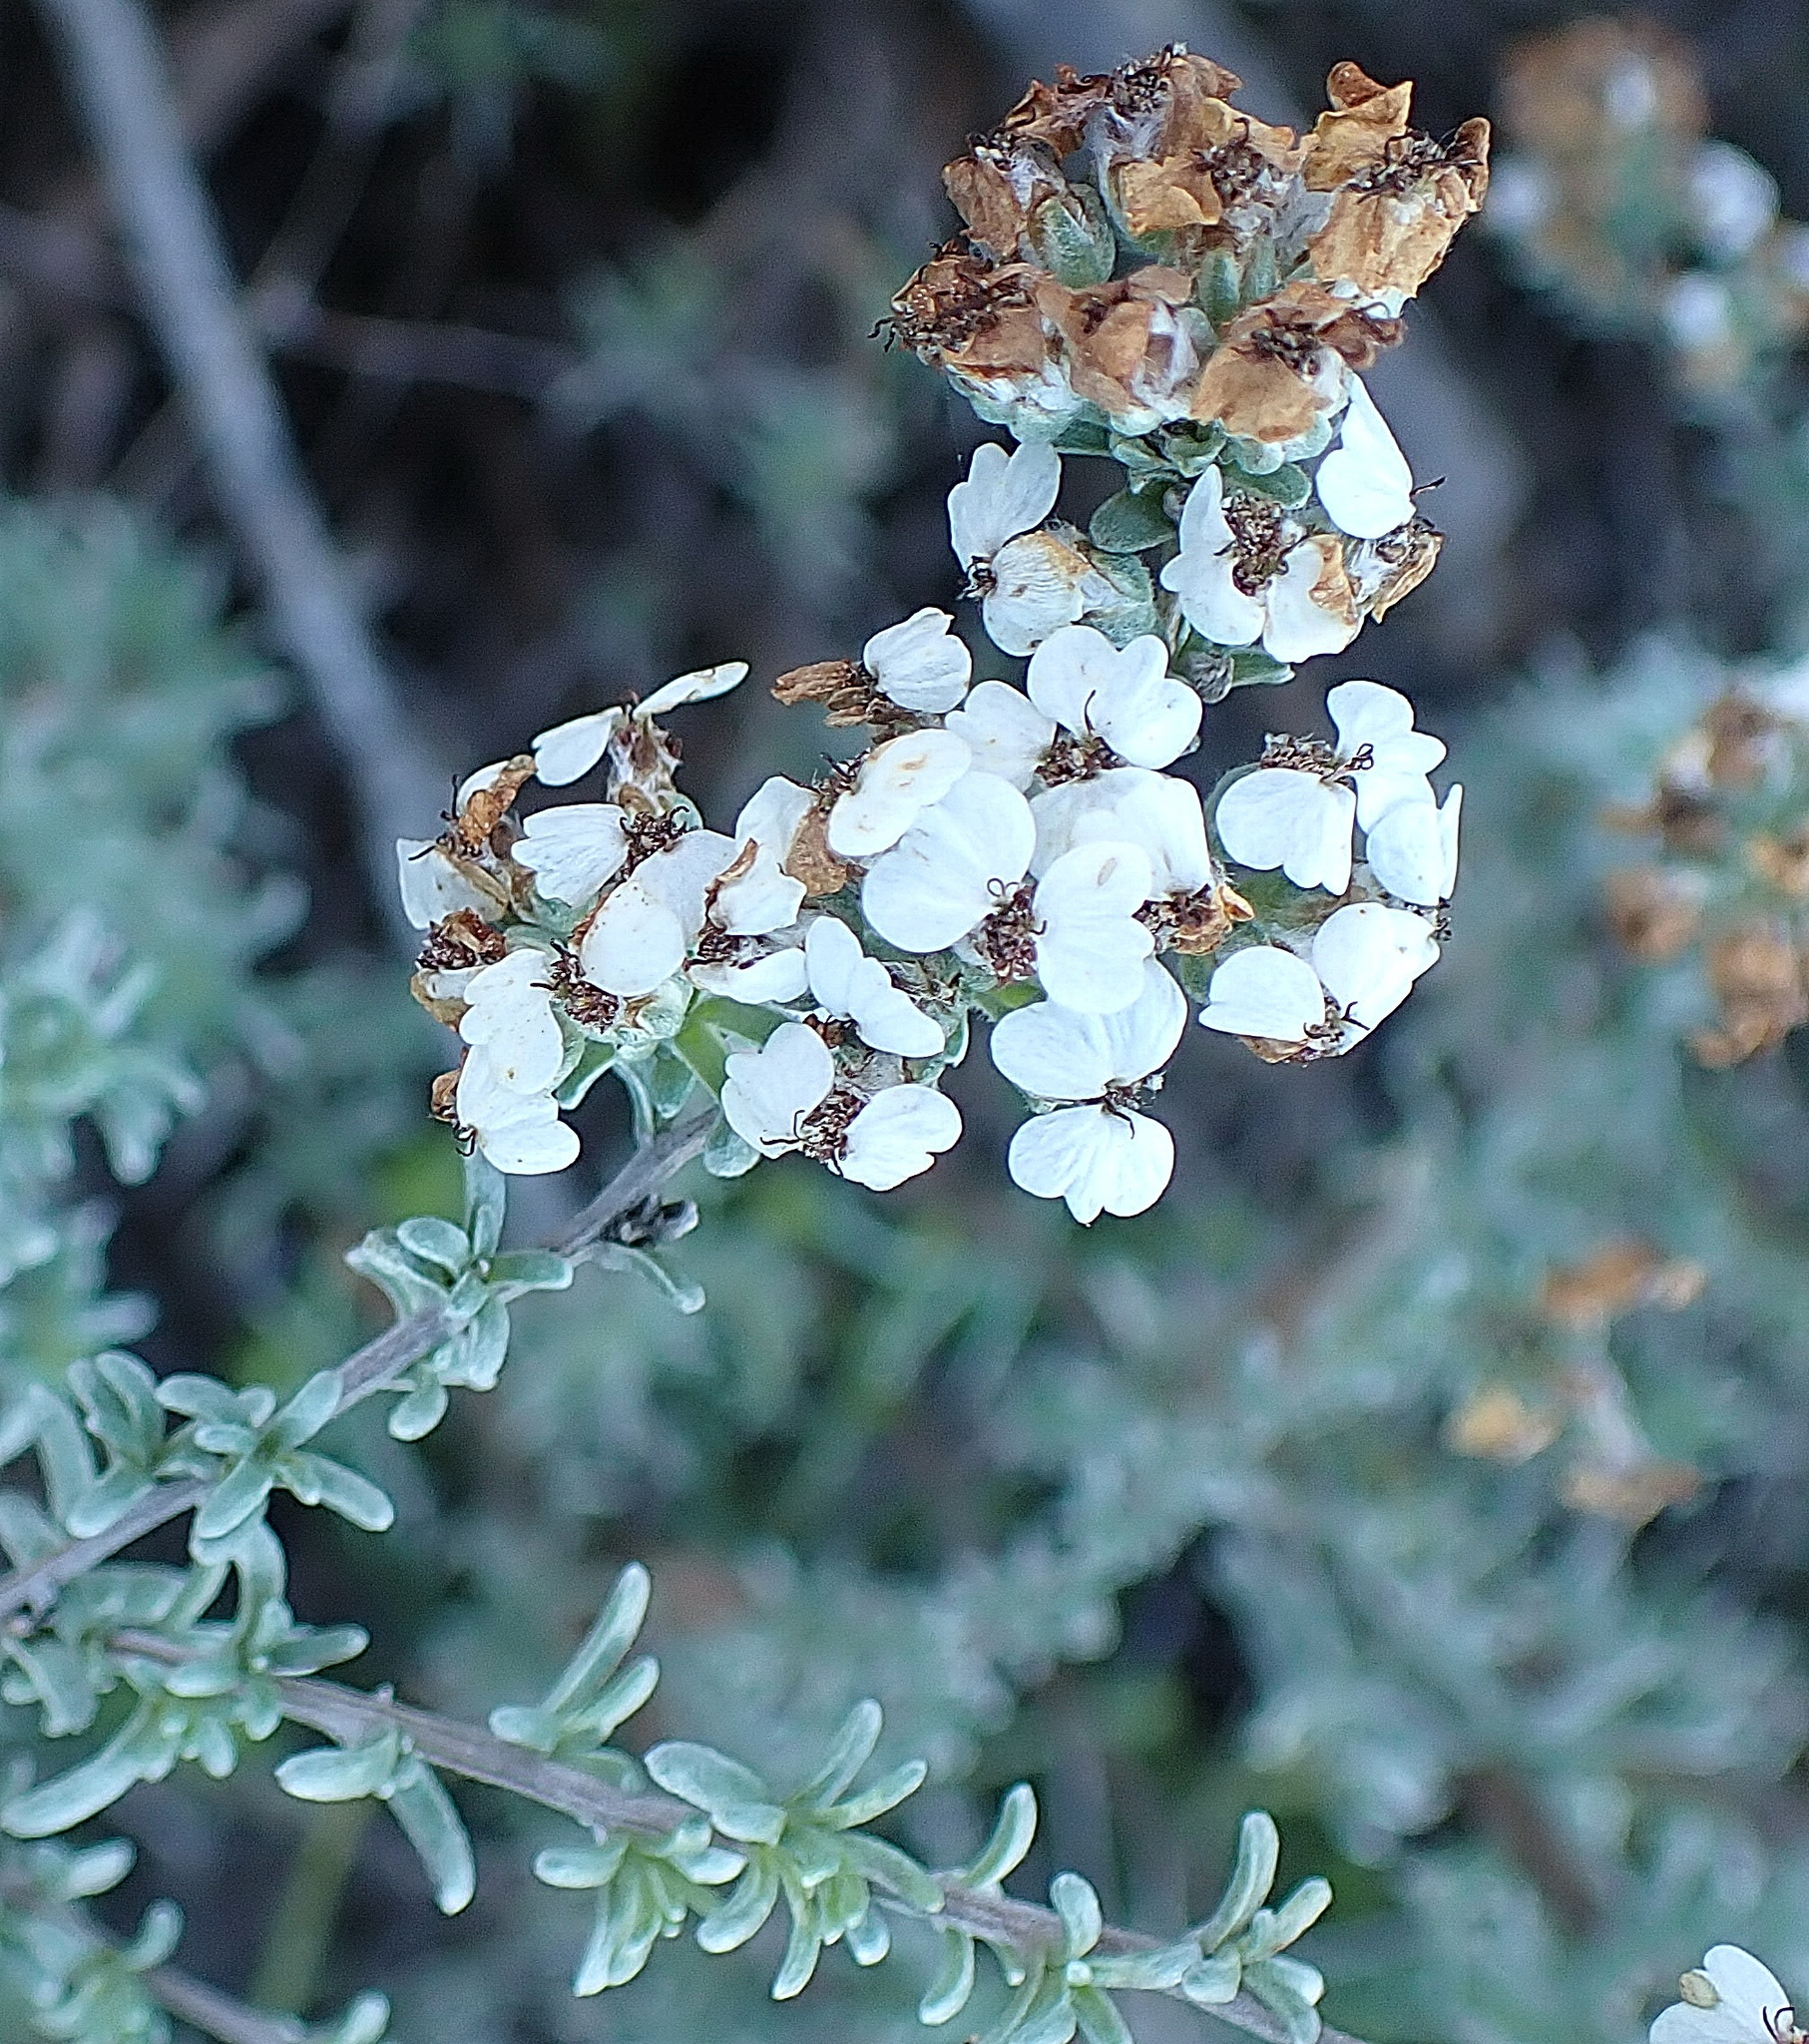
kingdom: Plantae
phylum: Tracheophyta
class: Magnoliopsida
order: Asterales
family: Asteraceae
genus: Eriocephalus
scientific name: Eriocephalus africanus
